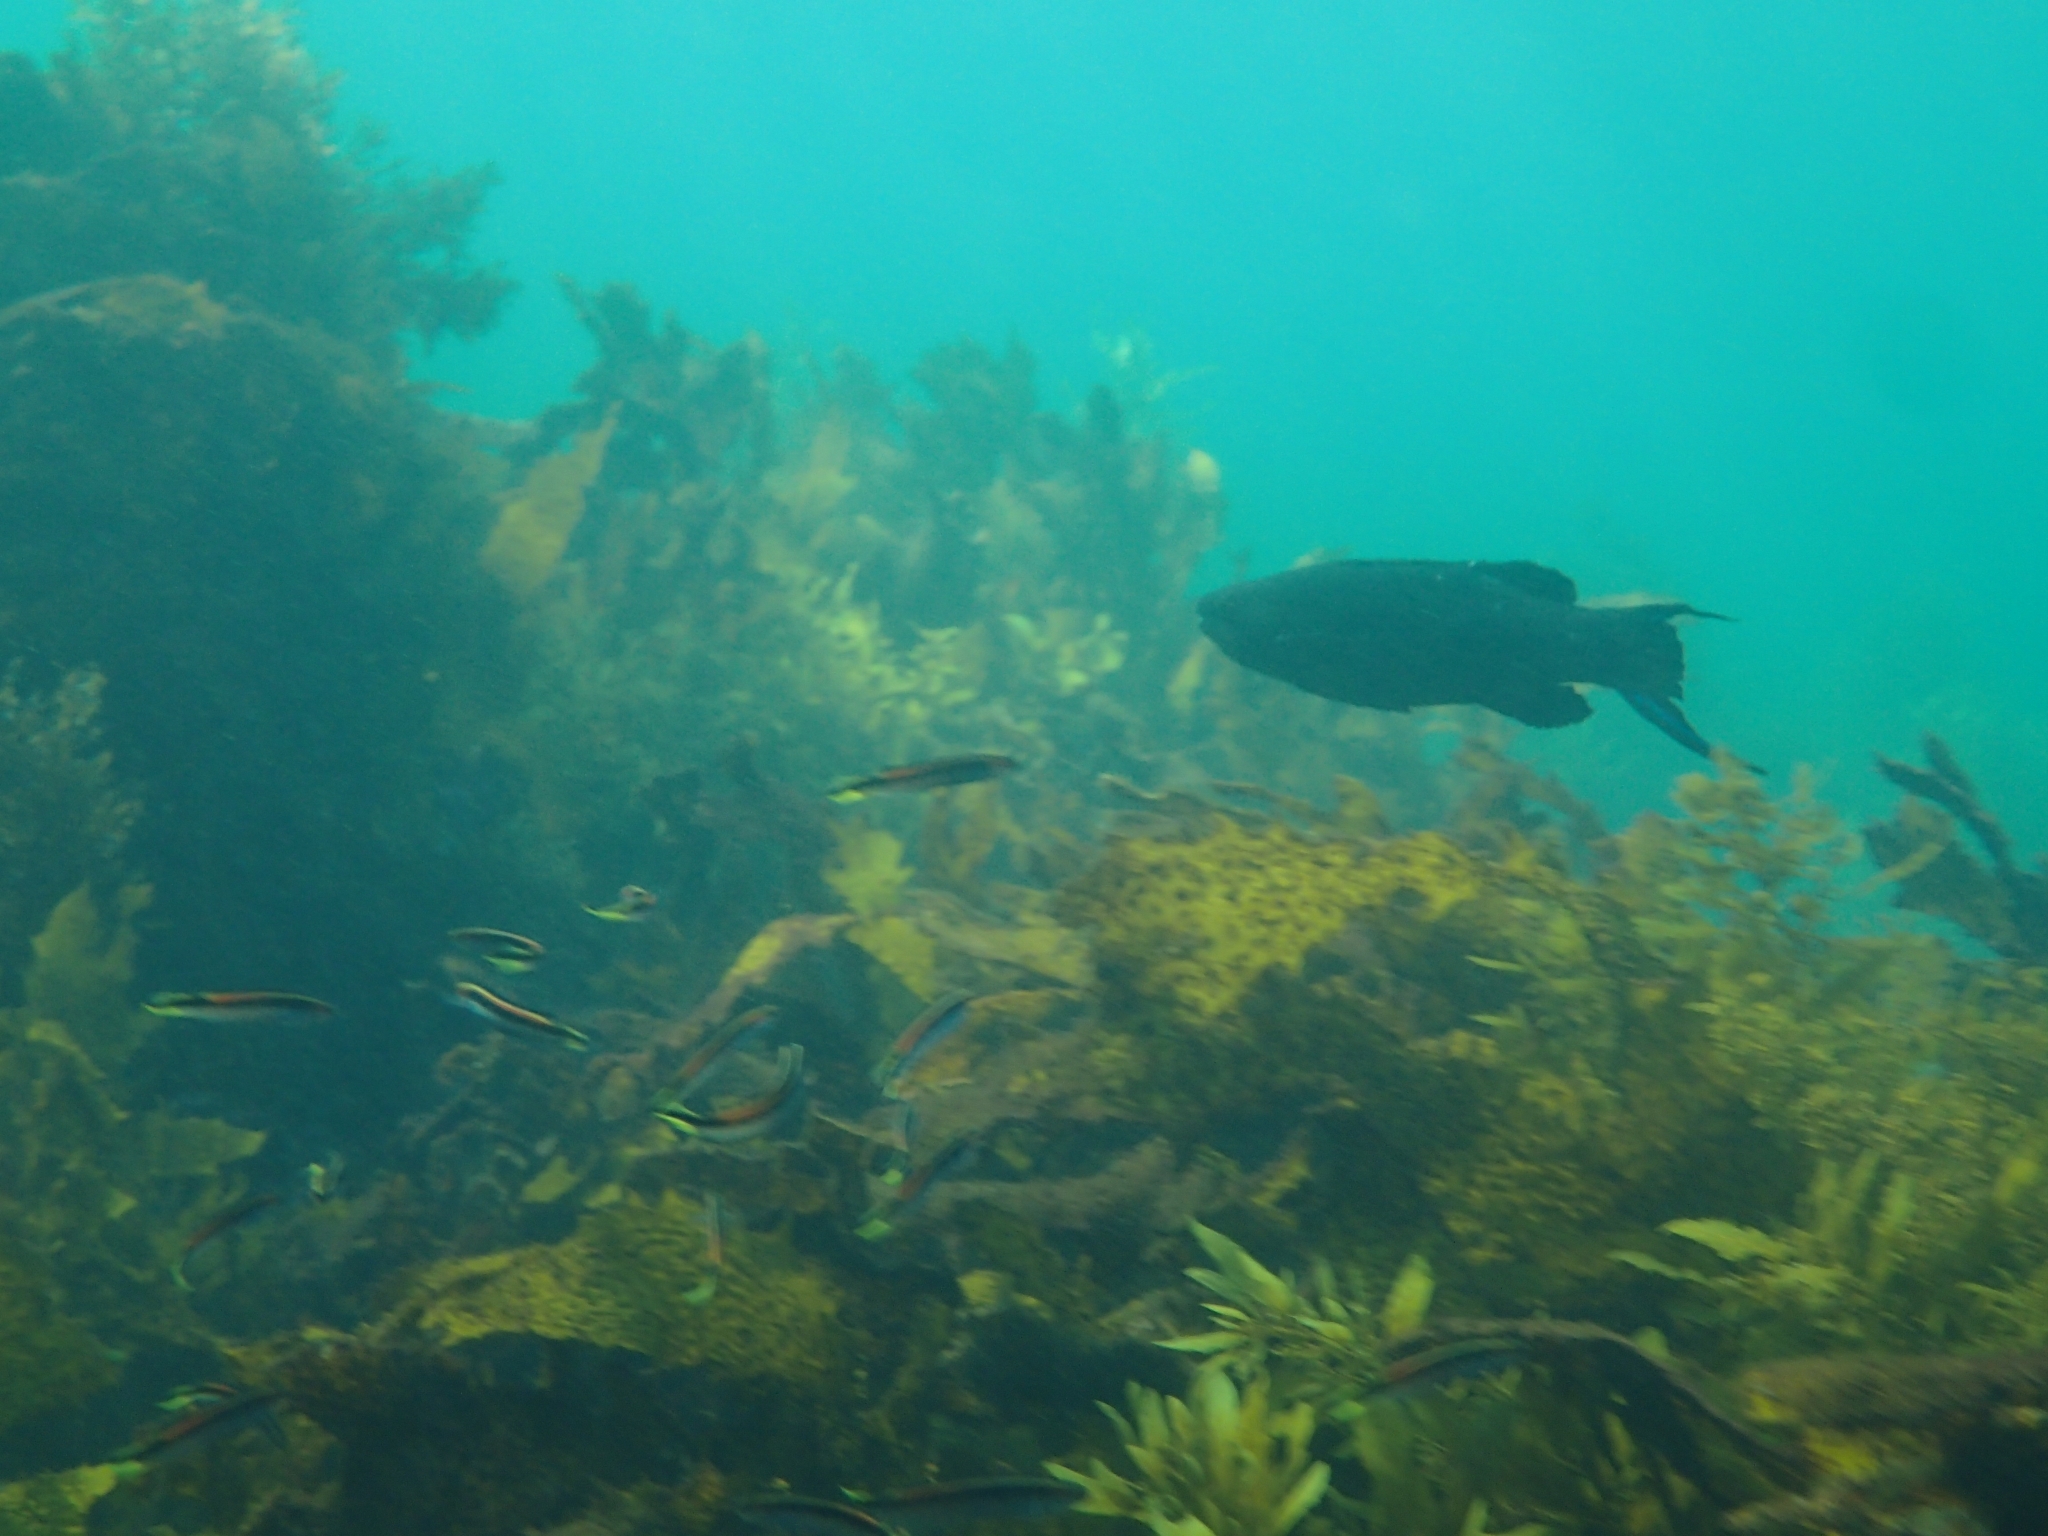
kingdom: Animalia
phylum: Chordata
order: Perciformes
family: Odacidae
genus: Olisthops
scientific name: Olisthops cyanomelas
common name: Herring cale
